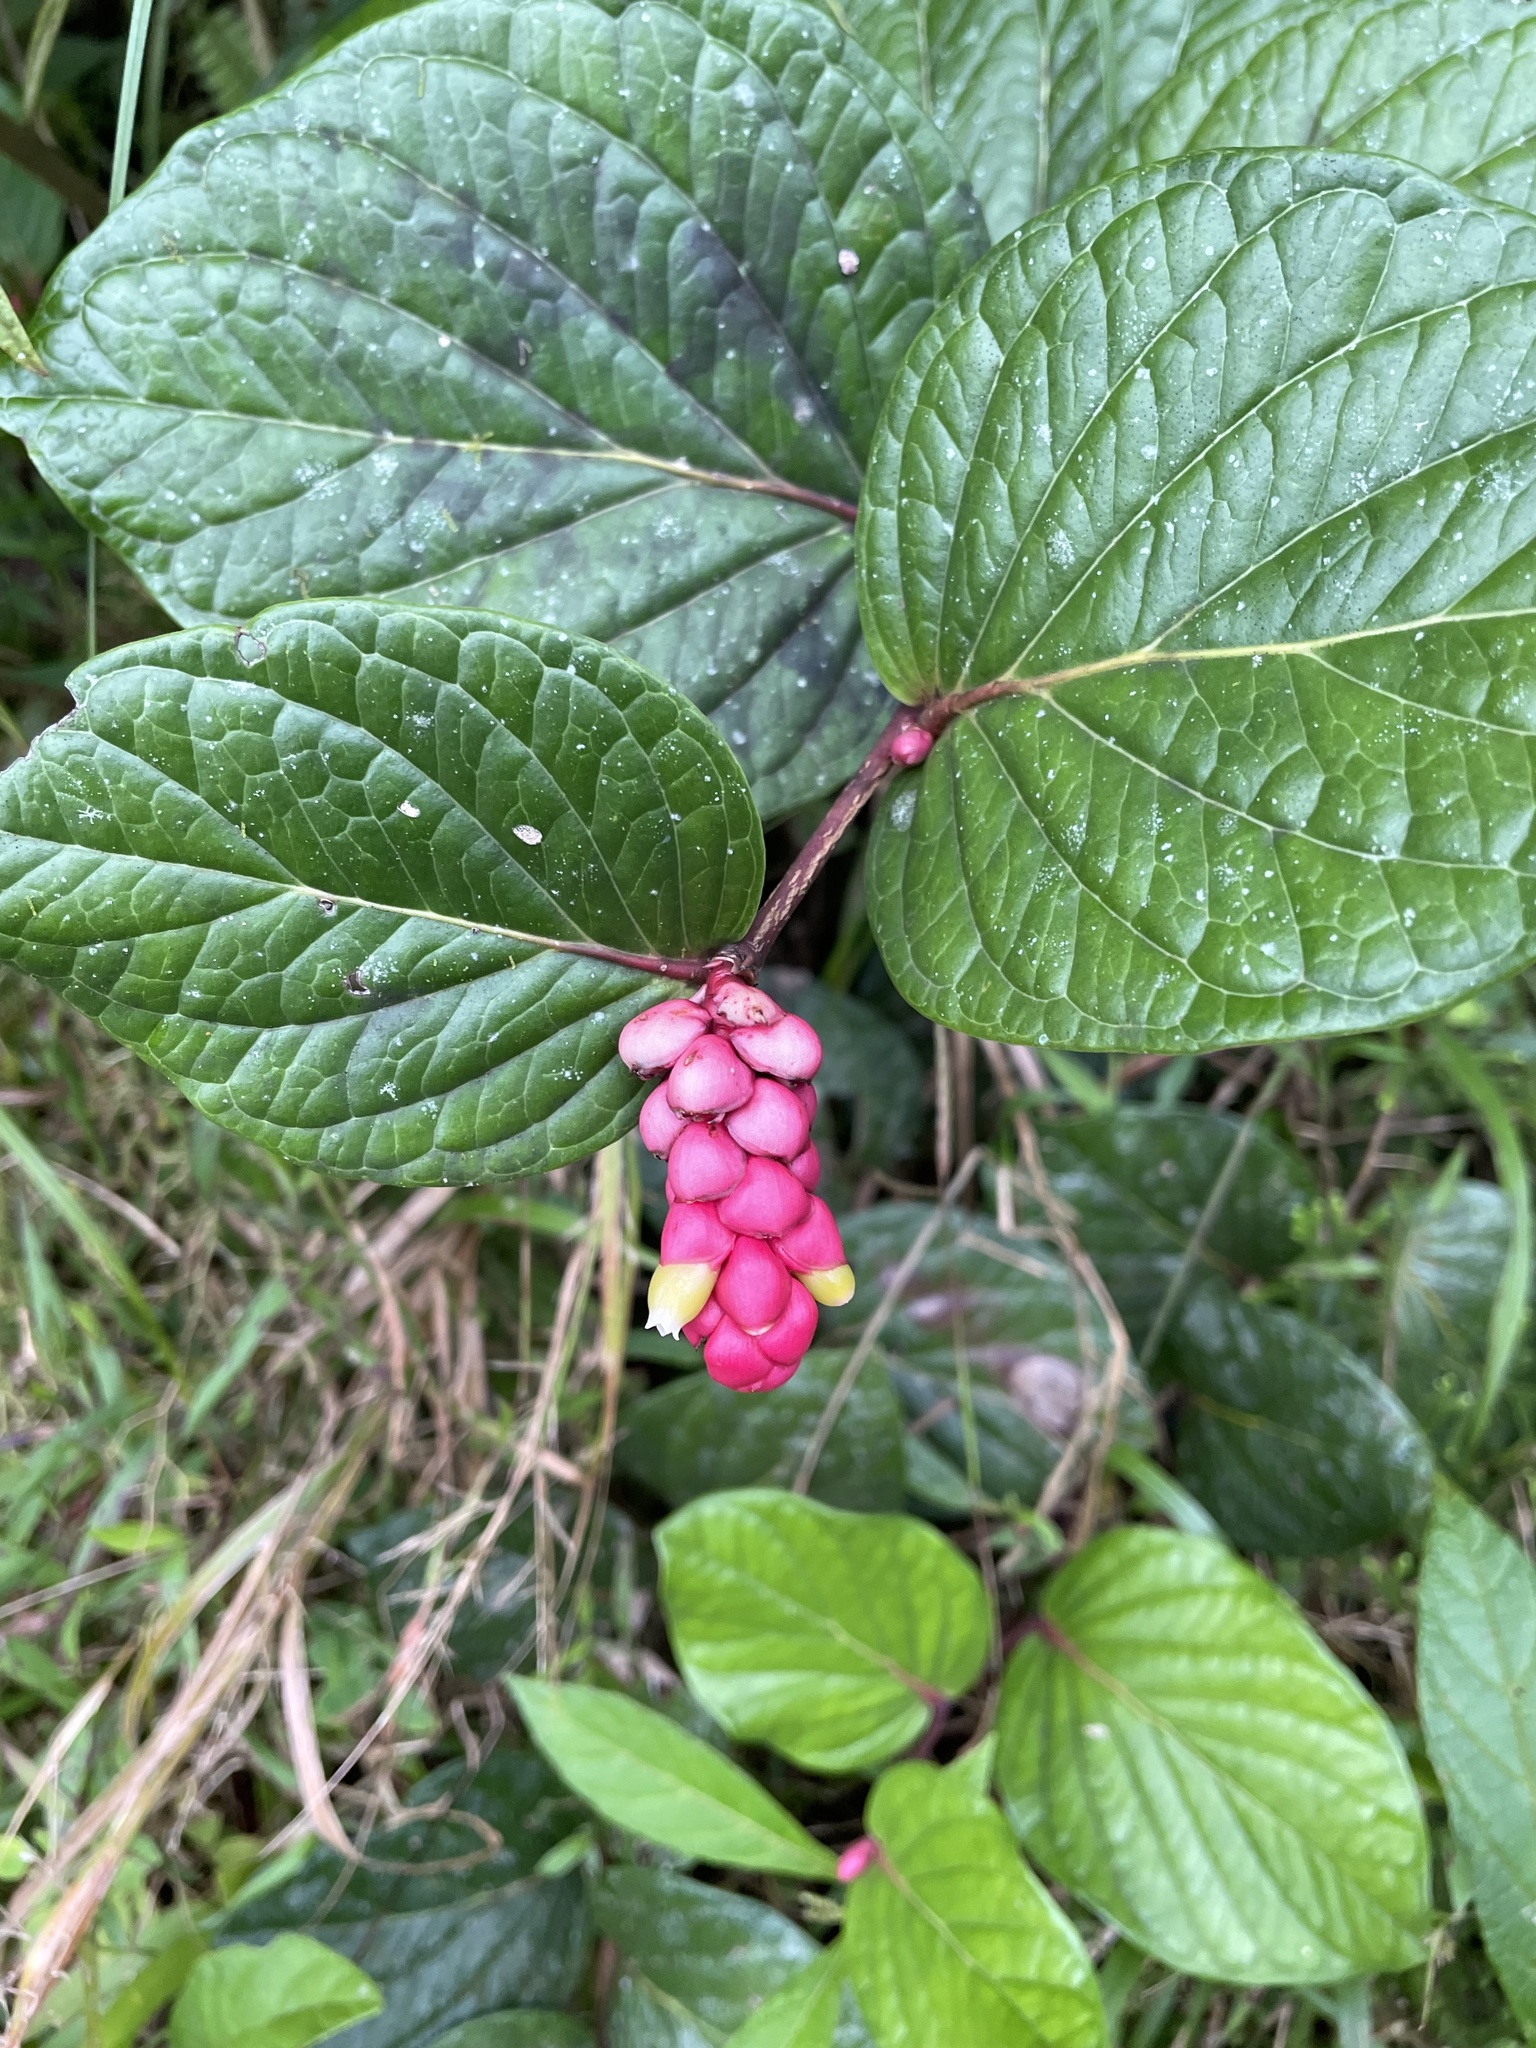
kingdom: Plantae
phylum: Tracheophyta
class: Magnoliopsida
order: Ericales
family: Ericaceae
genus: Cavendishia
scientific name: Cavendishia axillaris
